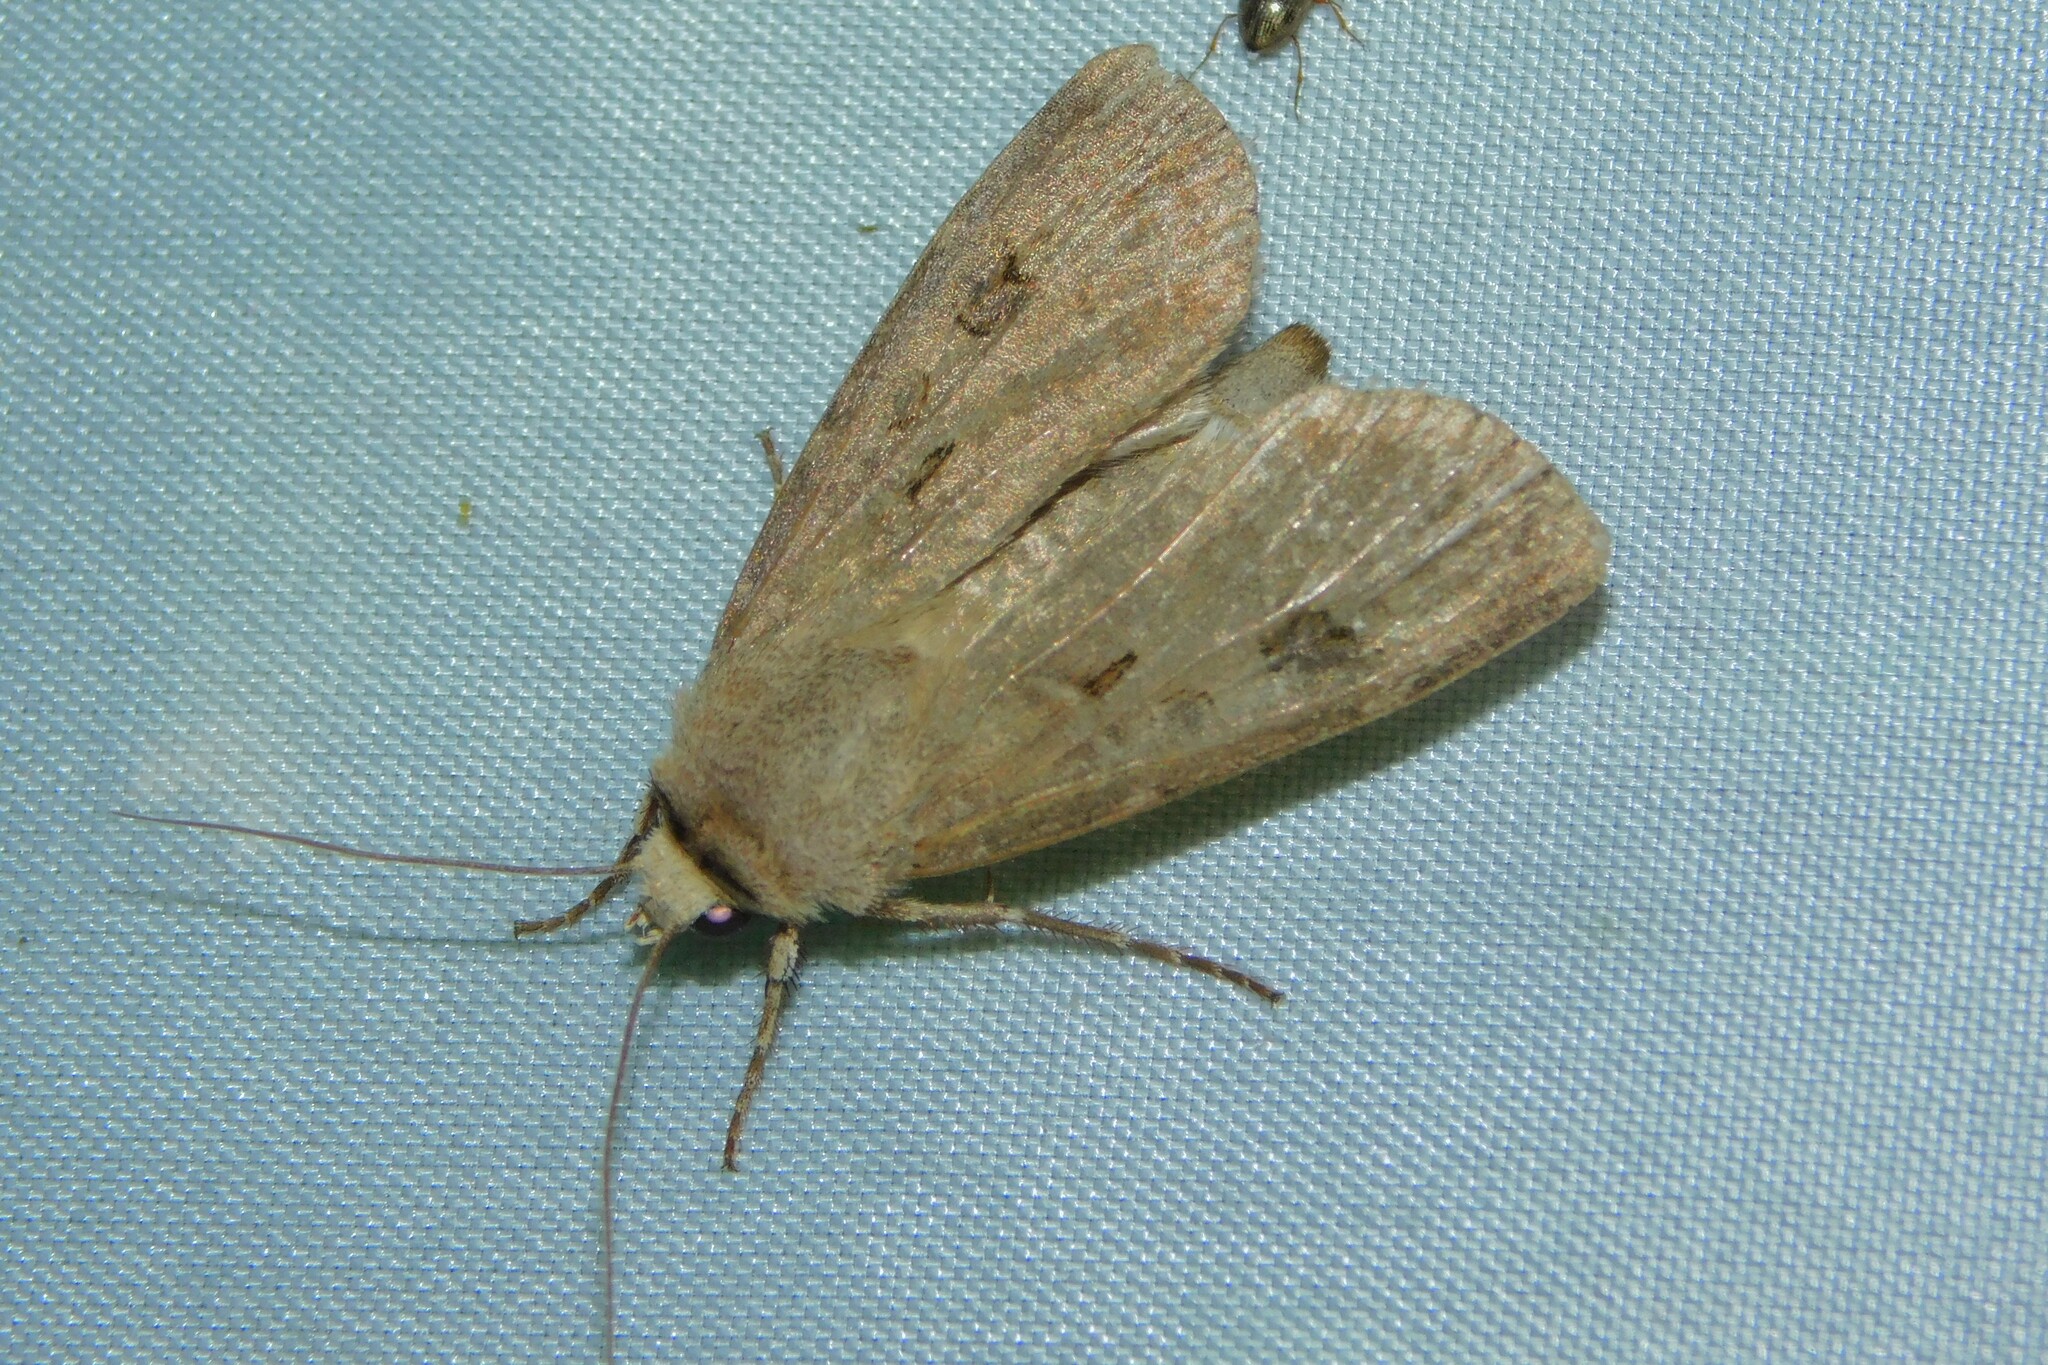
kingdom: Animalia
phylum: Arthropoda
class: Insecta
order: Lepidoptera
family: Noctuidae
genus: Agrotis
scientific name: Agrotis exclamationis
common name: Heart and dart
